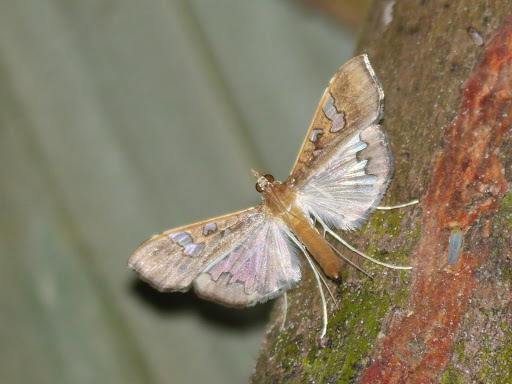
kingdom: Animalia
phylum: Arthropoda
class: Insecta
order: Lepidoptera
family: Crambidae
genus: Maruca
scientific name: Maruca vitrata
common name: Maruca pod borer
